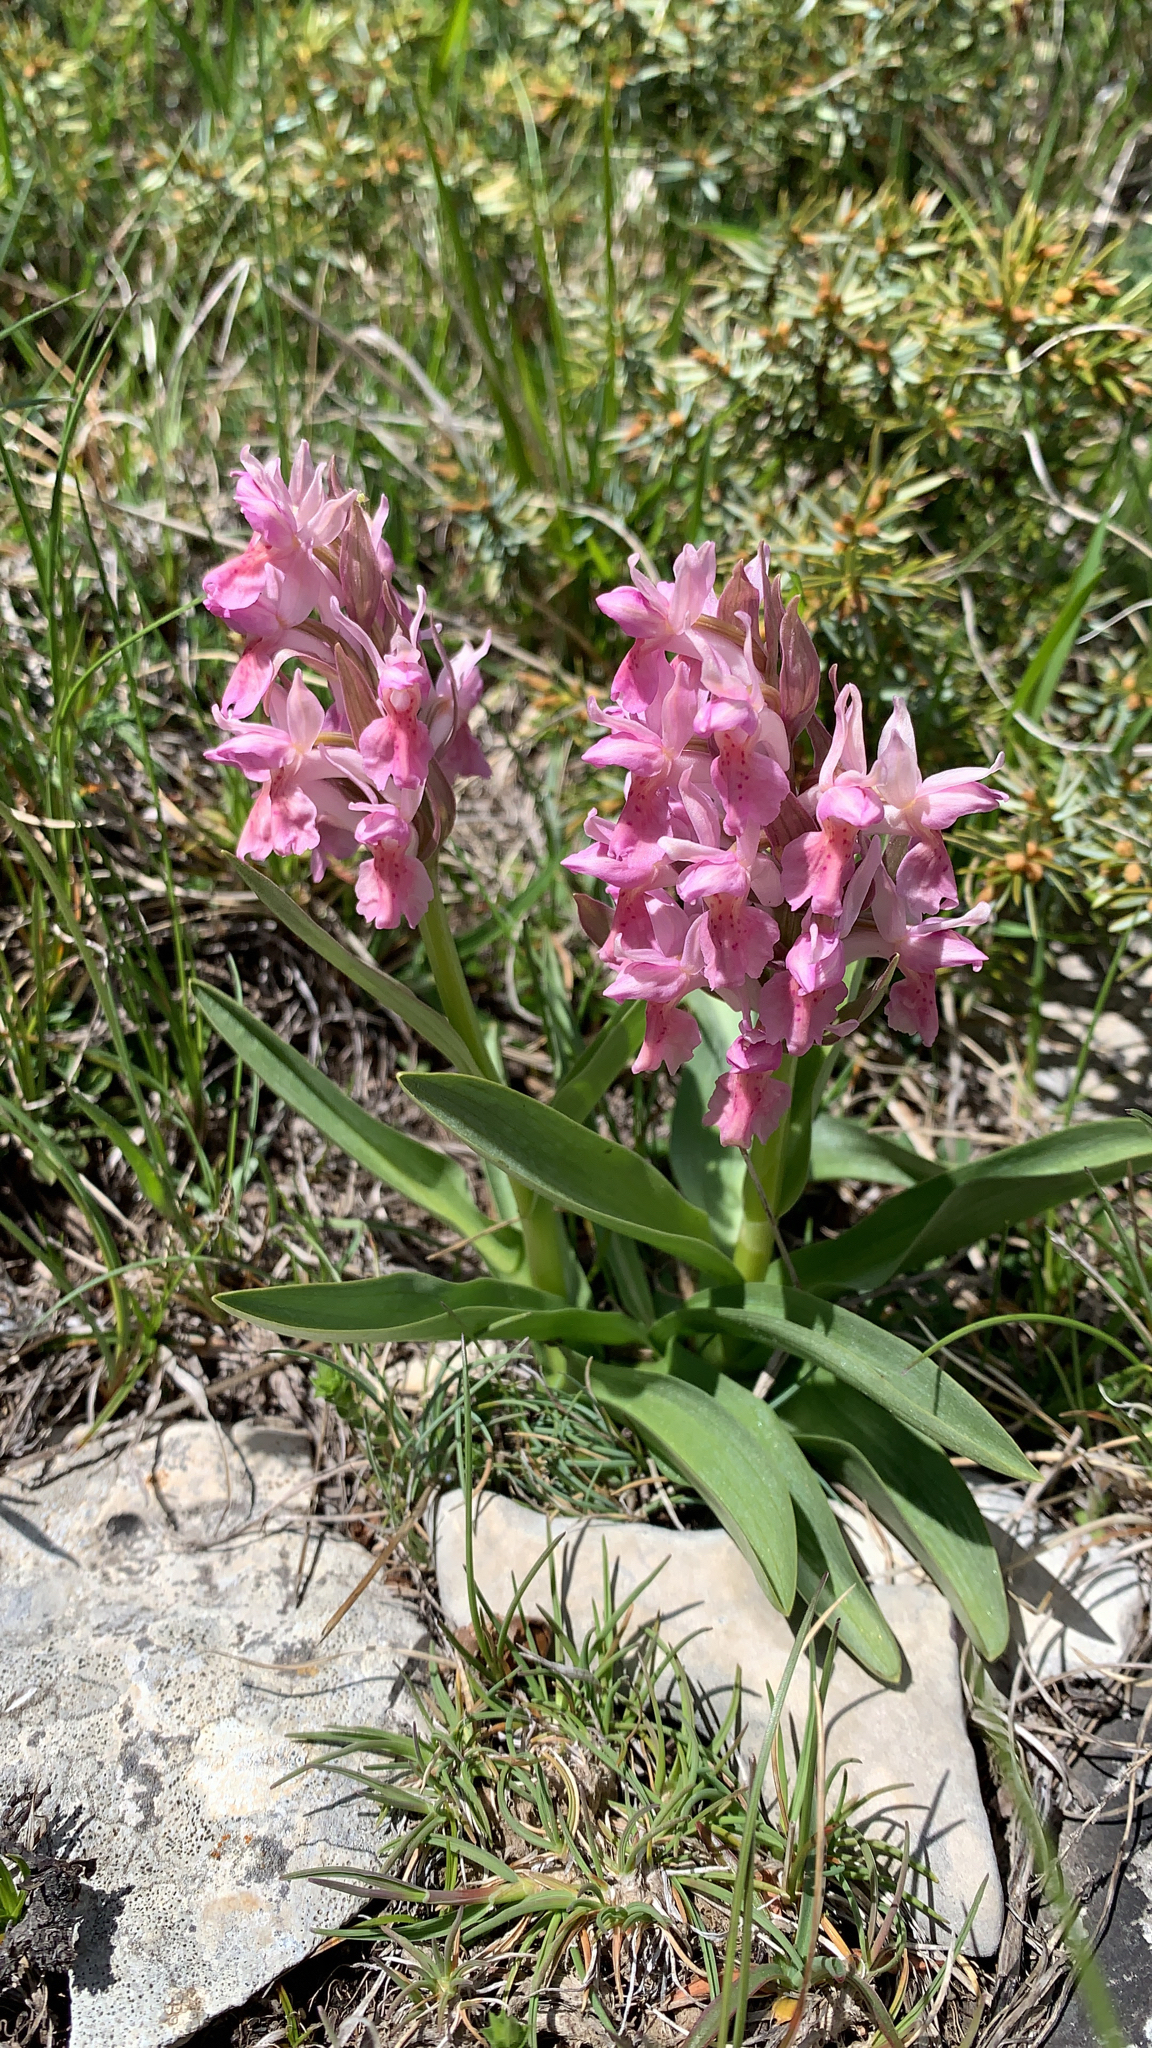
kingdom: Plantae
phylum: Tracheophyta
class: Liliopsida
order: Asparagales
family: Orchidaceae
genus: Dactylorhiza
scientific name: Dactylorhiza sambucina
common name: Elder-flowered orchid
